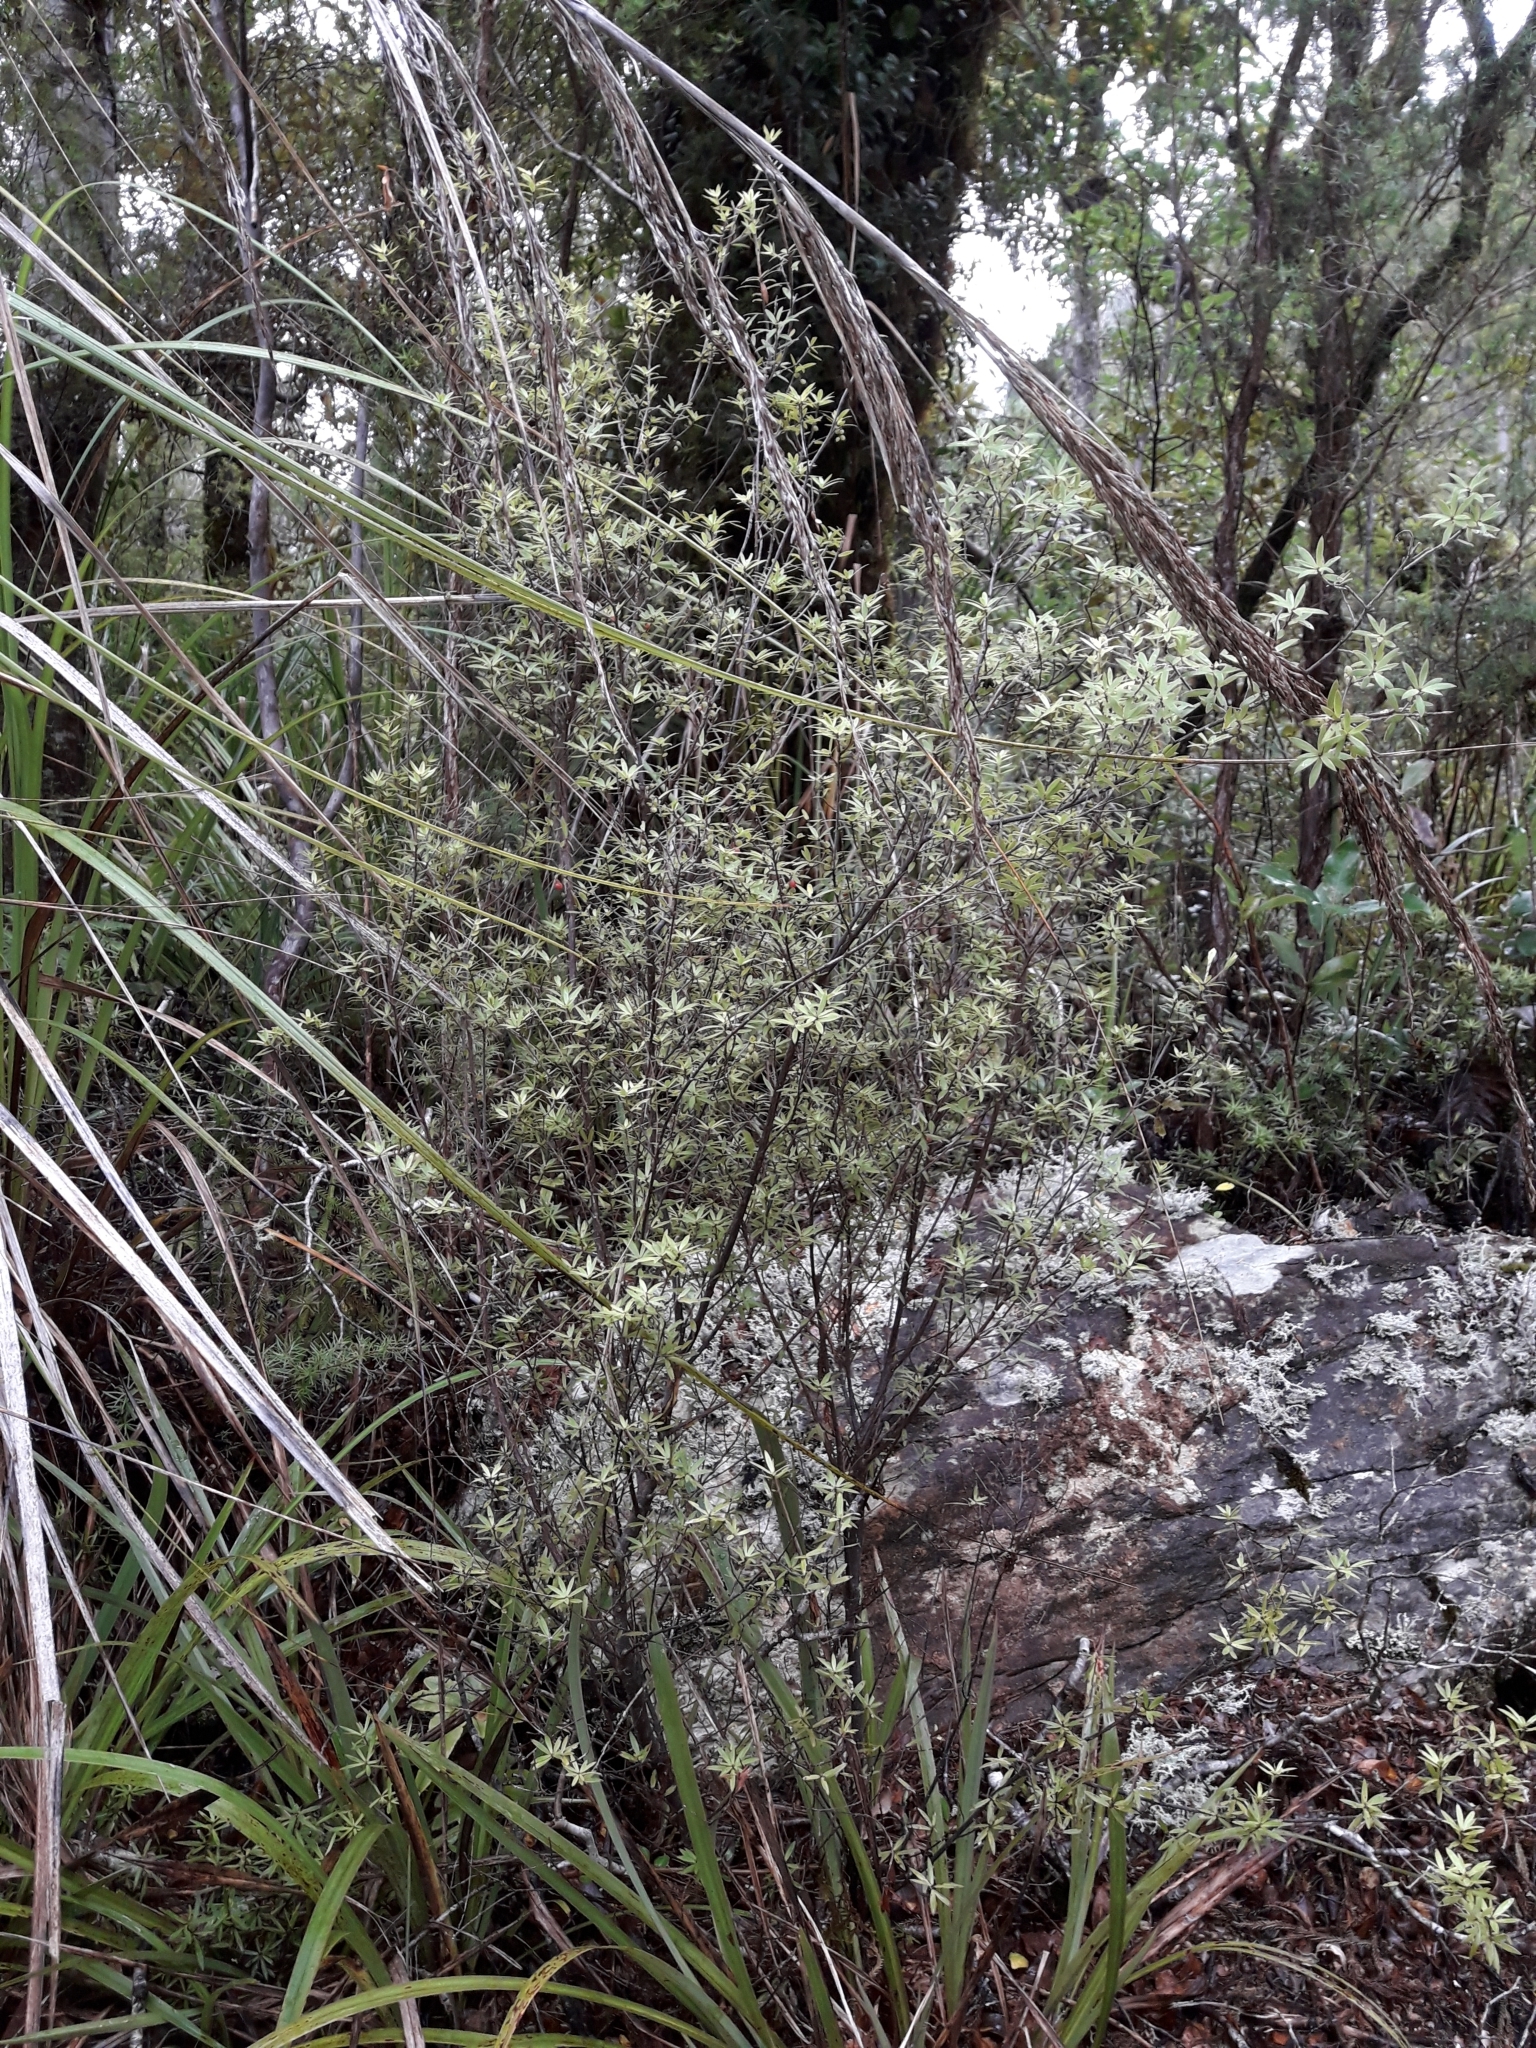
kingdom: Plantae
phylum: Tracheophyta
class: Magnoliopsida
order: Ericales
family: Ericaceae
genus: Leucopogon
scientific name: Leucopogon fasciculatus
